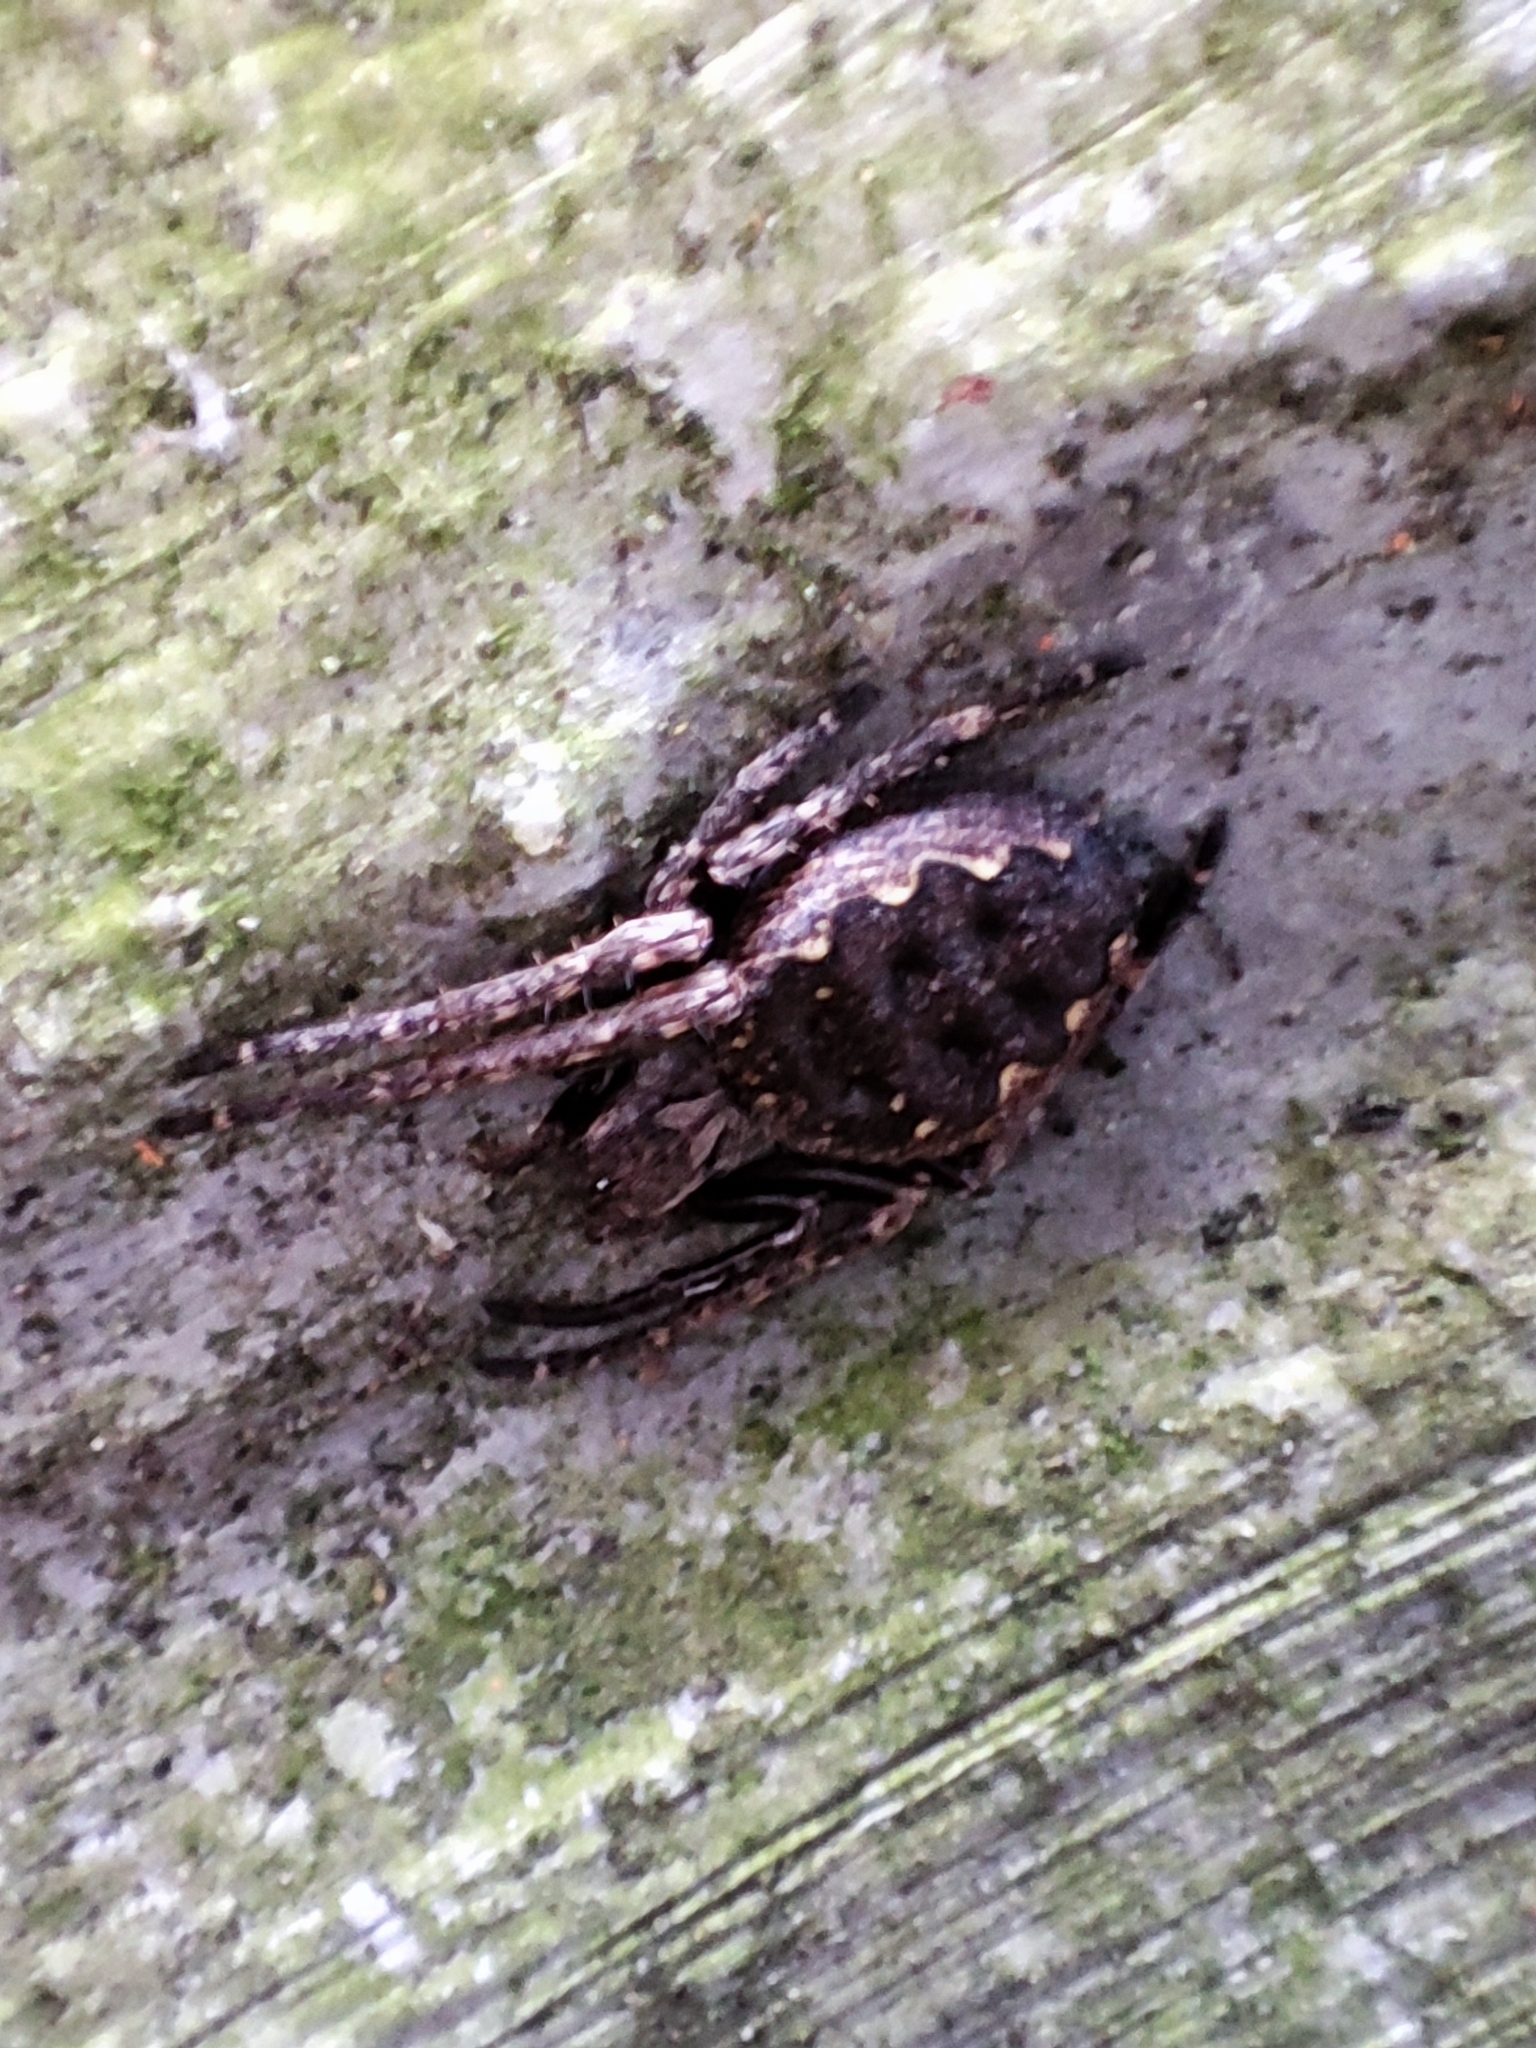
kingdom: Animalia
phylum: Arthropoda
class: Arachnida
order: Araneae
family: Araneidae
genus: Nuctenea
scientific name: Nuctenea umbratica
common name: Toad spider
